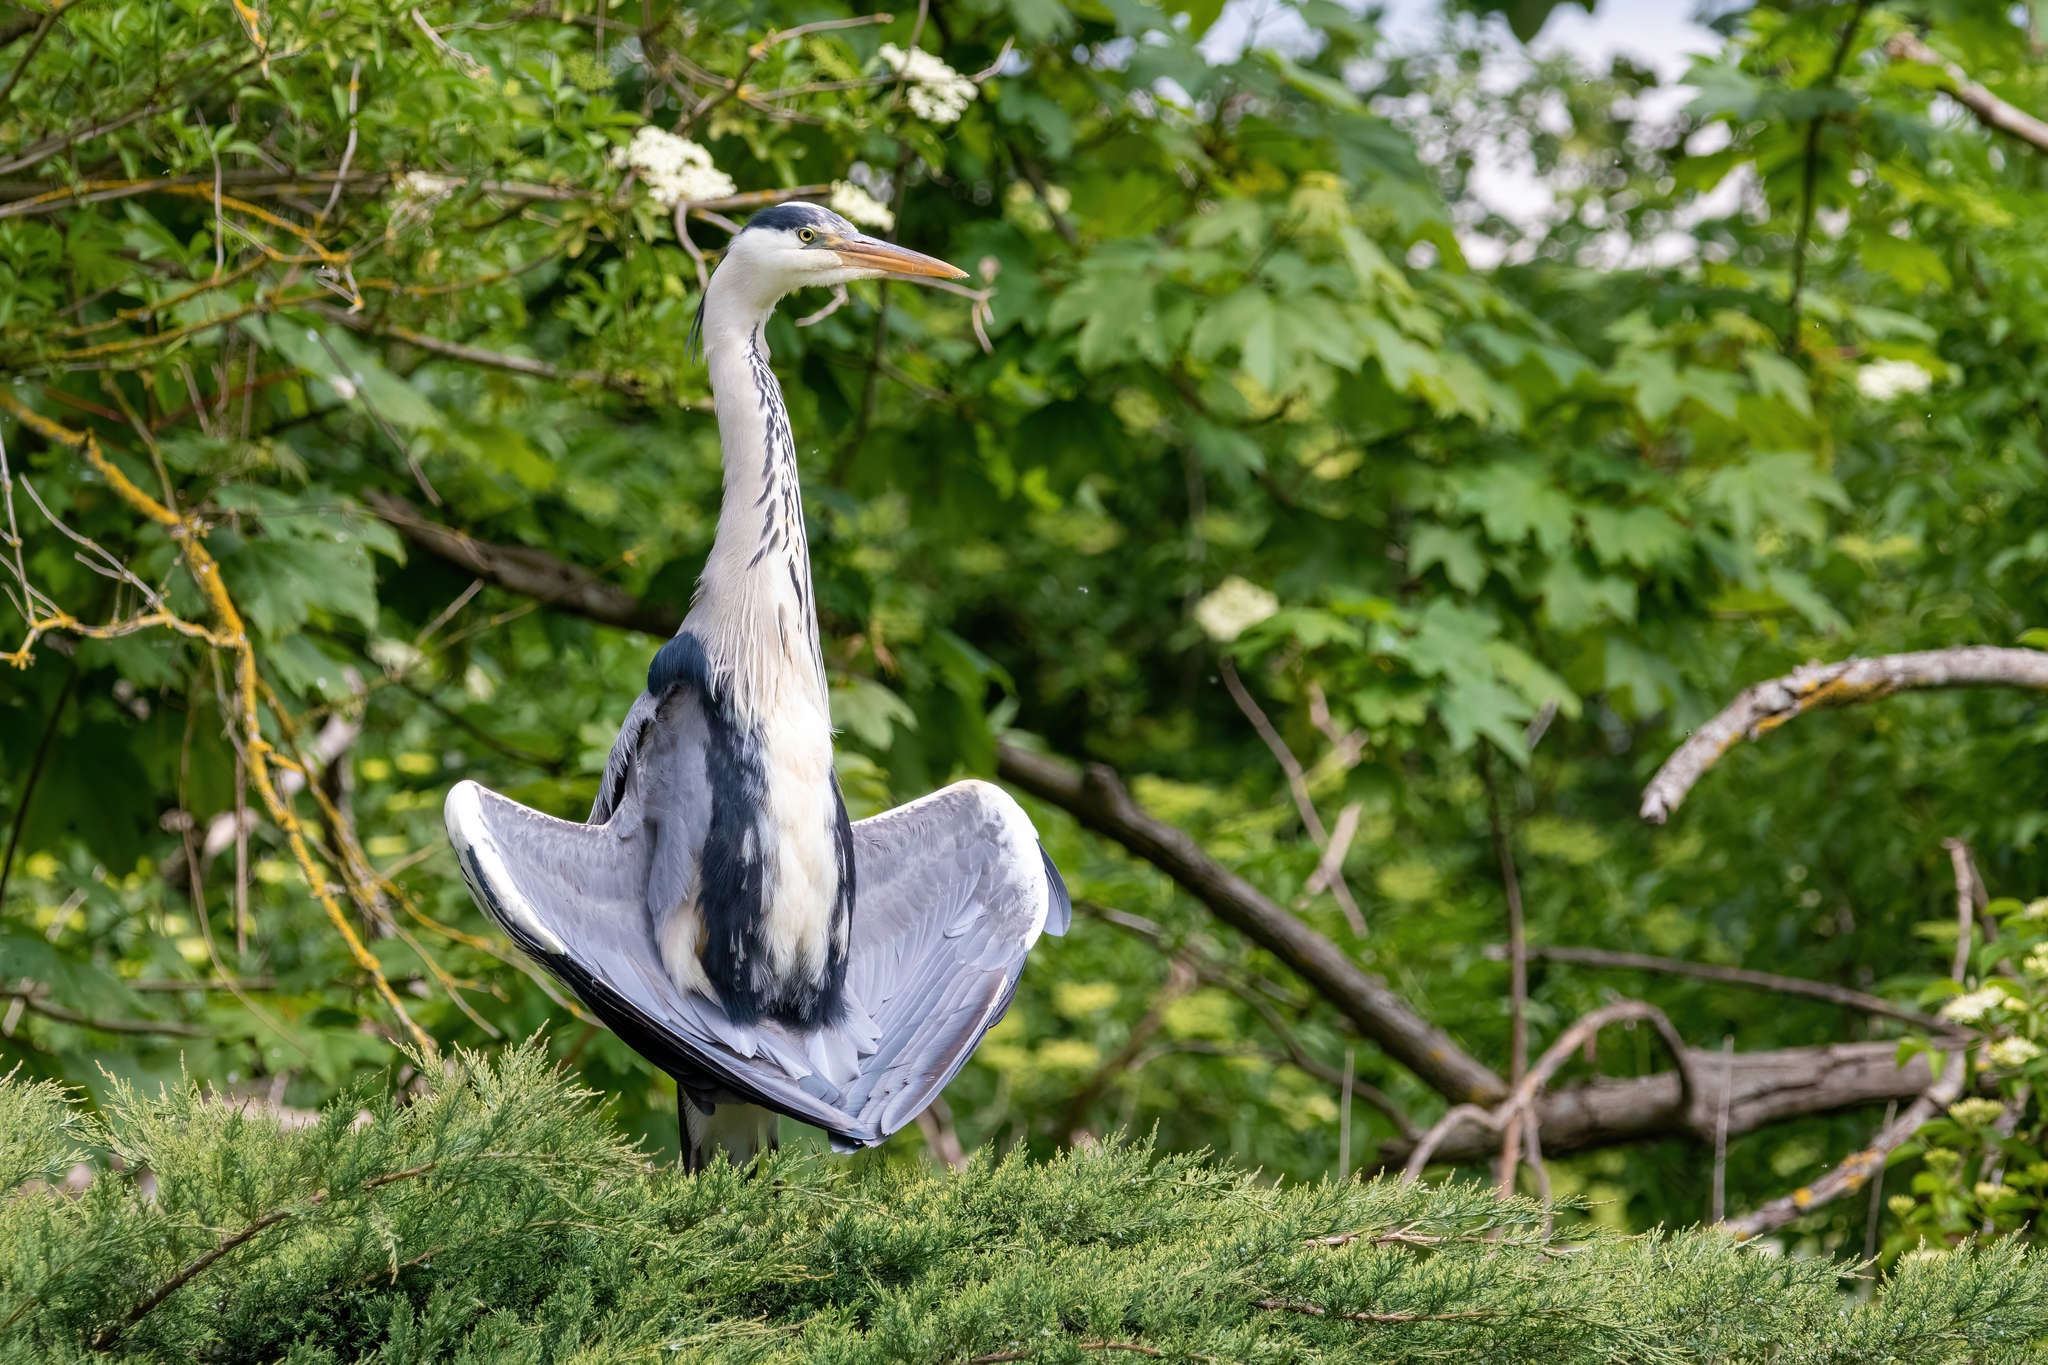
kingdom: Animalia
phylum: Chordata
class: Aves
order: Pelecaniformes
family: Ardeidae
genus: Ardea
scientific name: Ardea cinerea
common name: Grey heron
